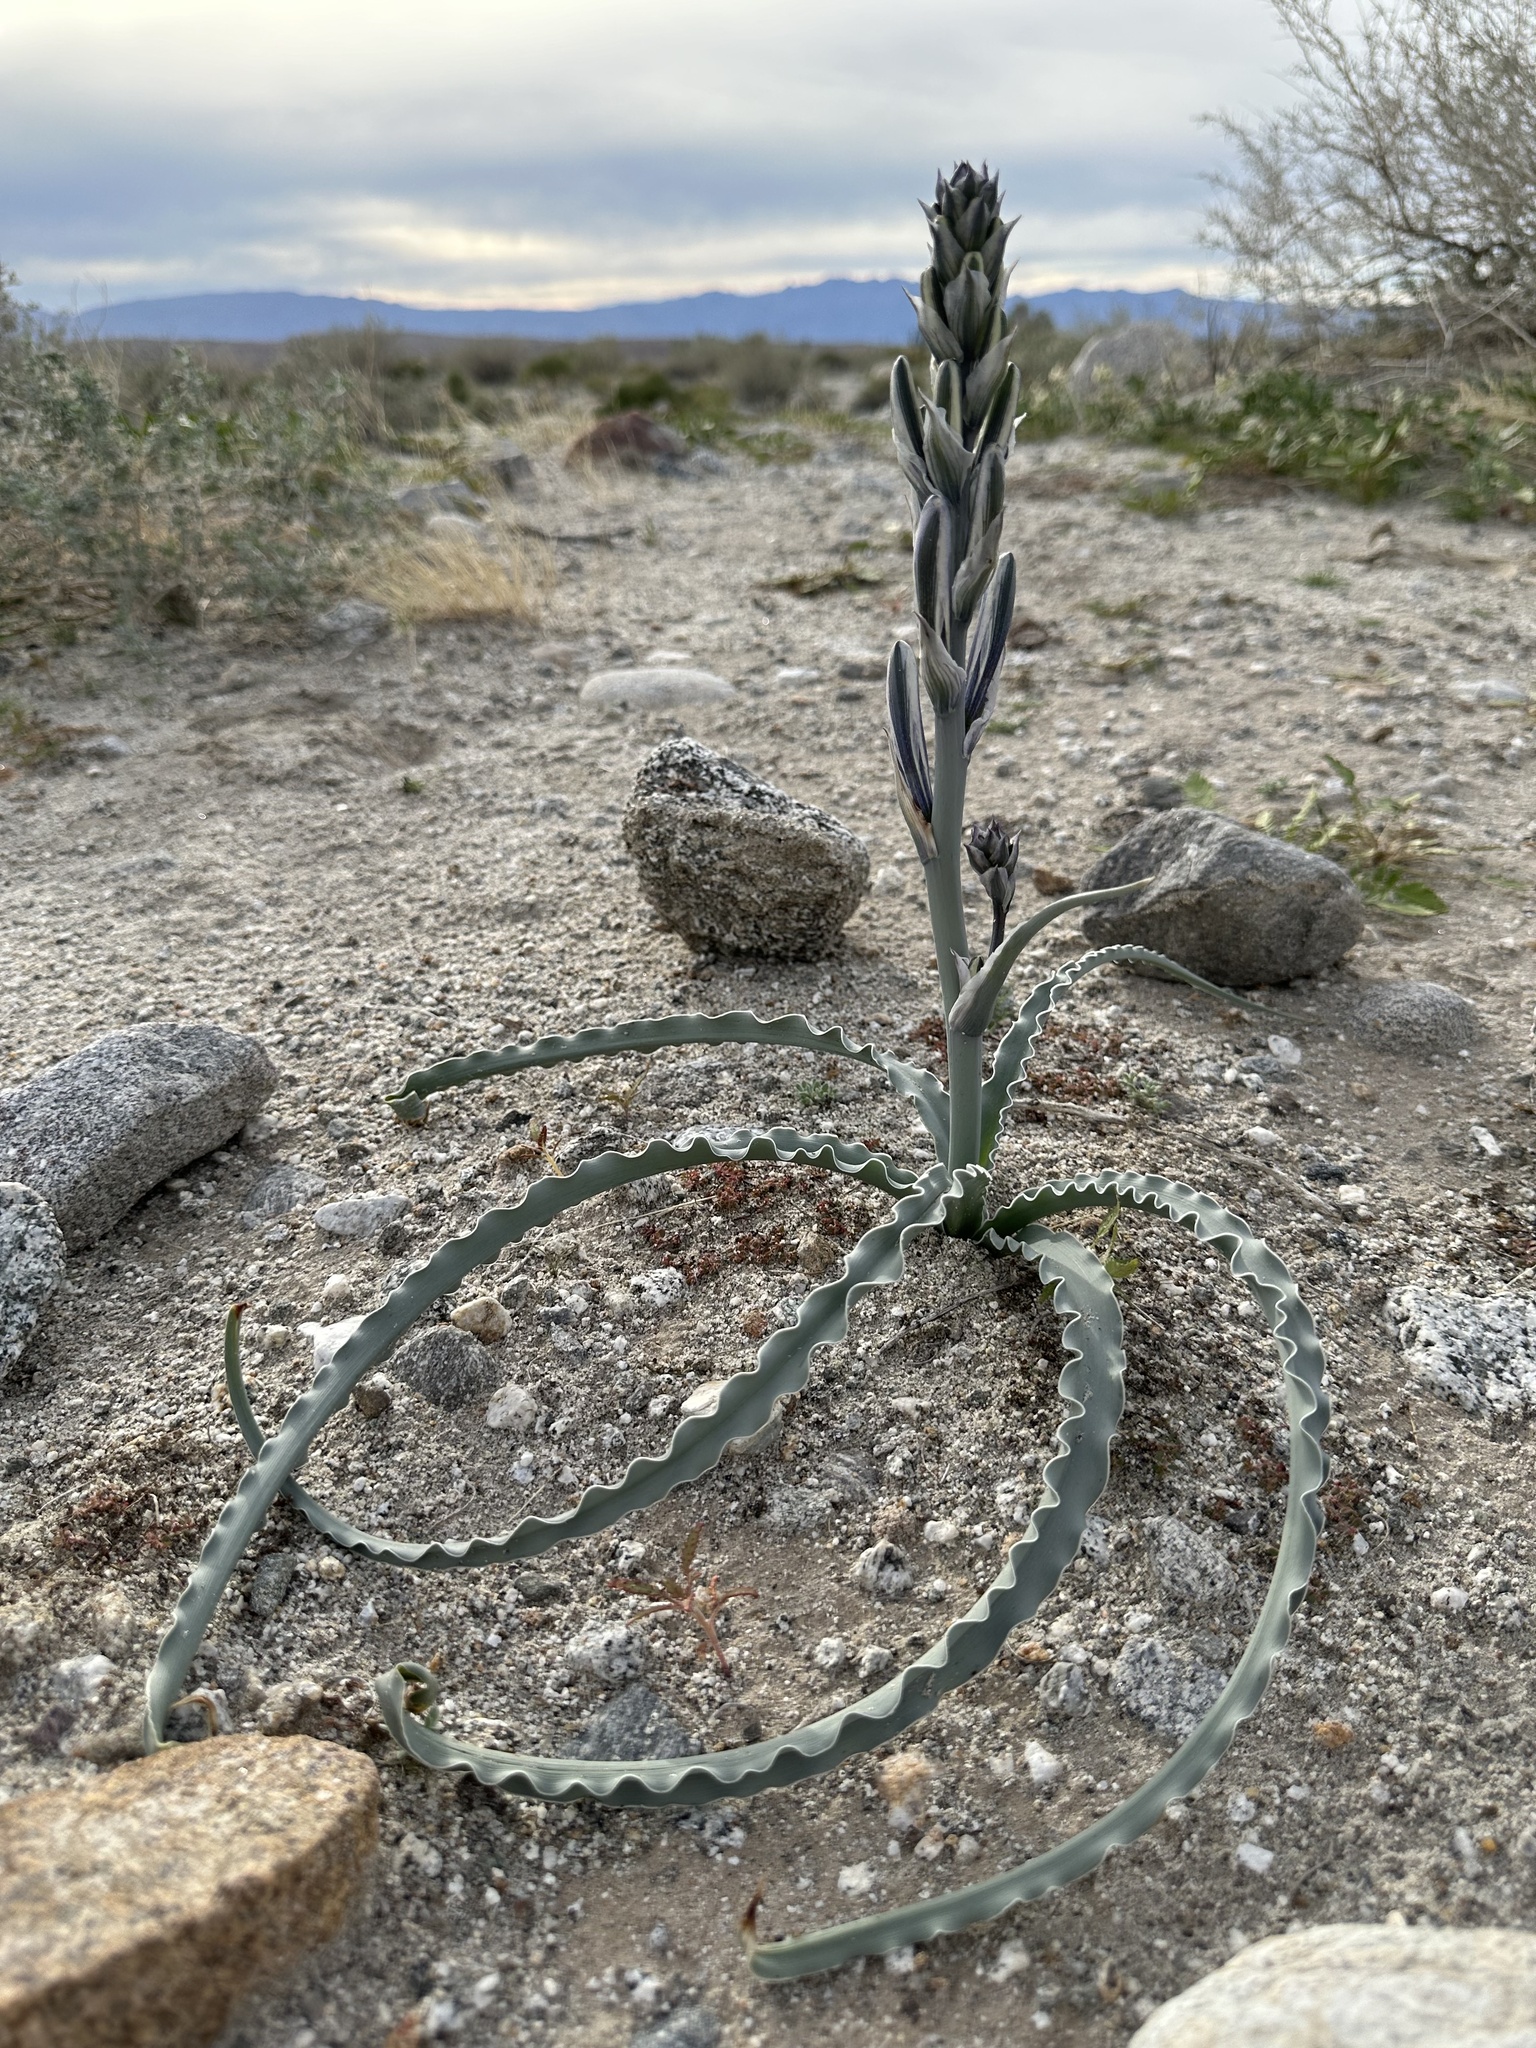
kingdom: Plantae
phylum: Tracheophyta
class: Liliopsida
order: Asparagales
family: Asparagaceae
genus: Hesperocallis
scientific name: Hesperocallis undulata
